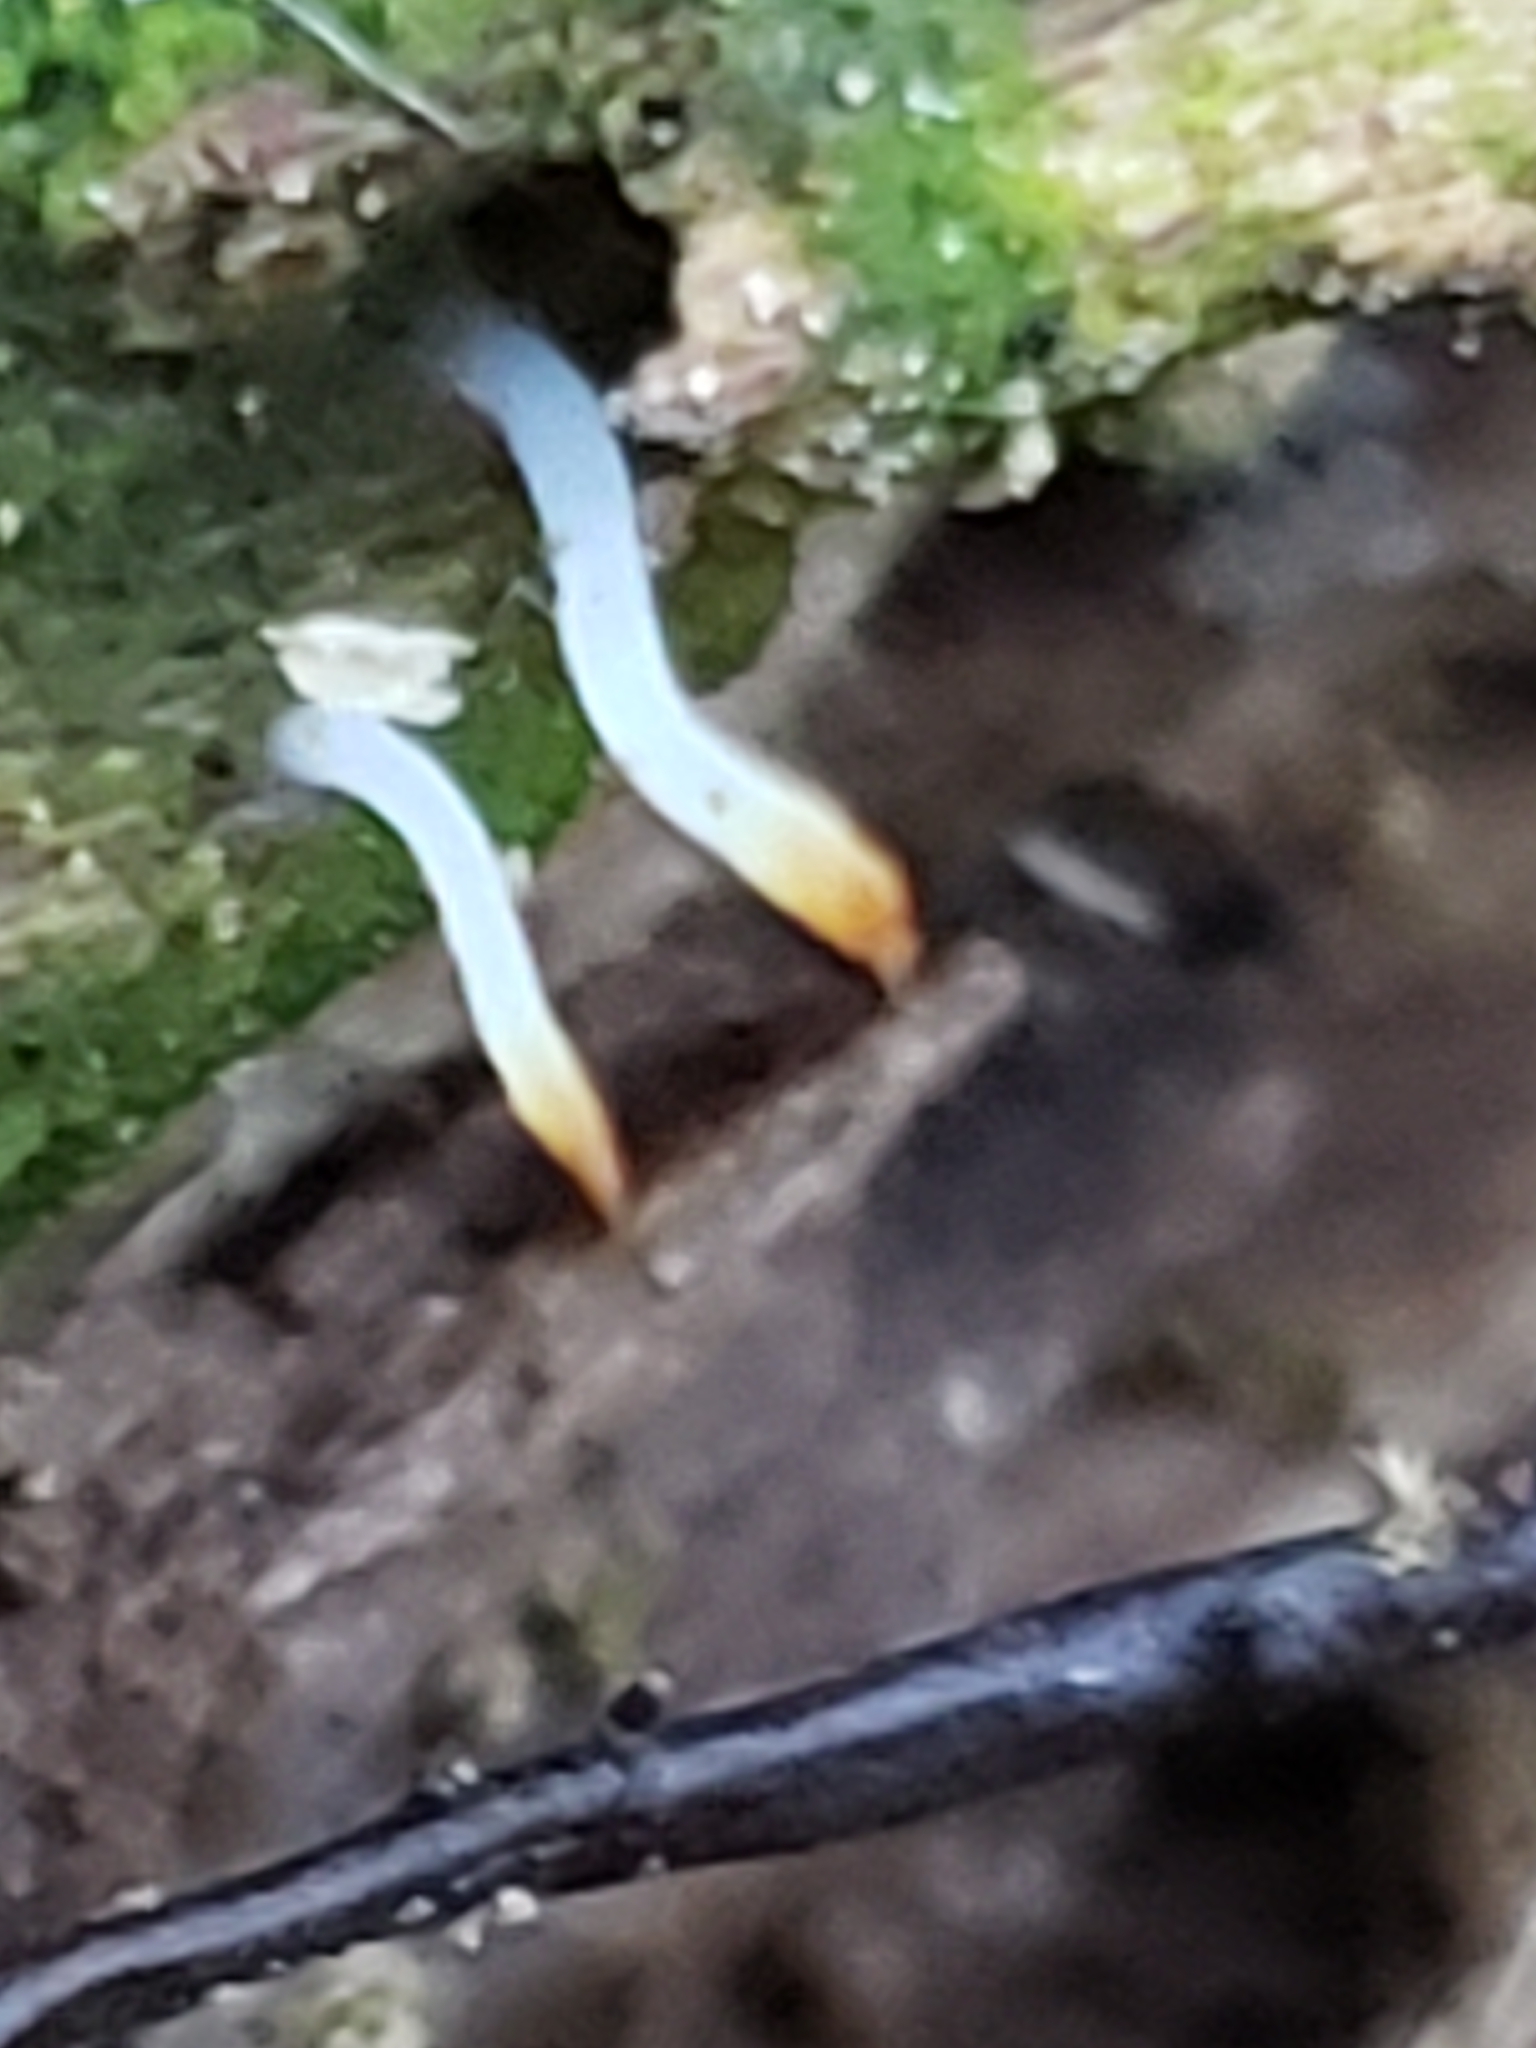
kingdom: Fungi
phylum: Basidiomycota
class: Agaricomycetes
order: Cantharellales
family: Hydnaceae
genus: Multiclavula
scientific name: Multiclavula mucida
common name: White green-algae coral
